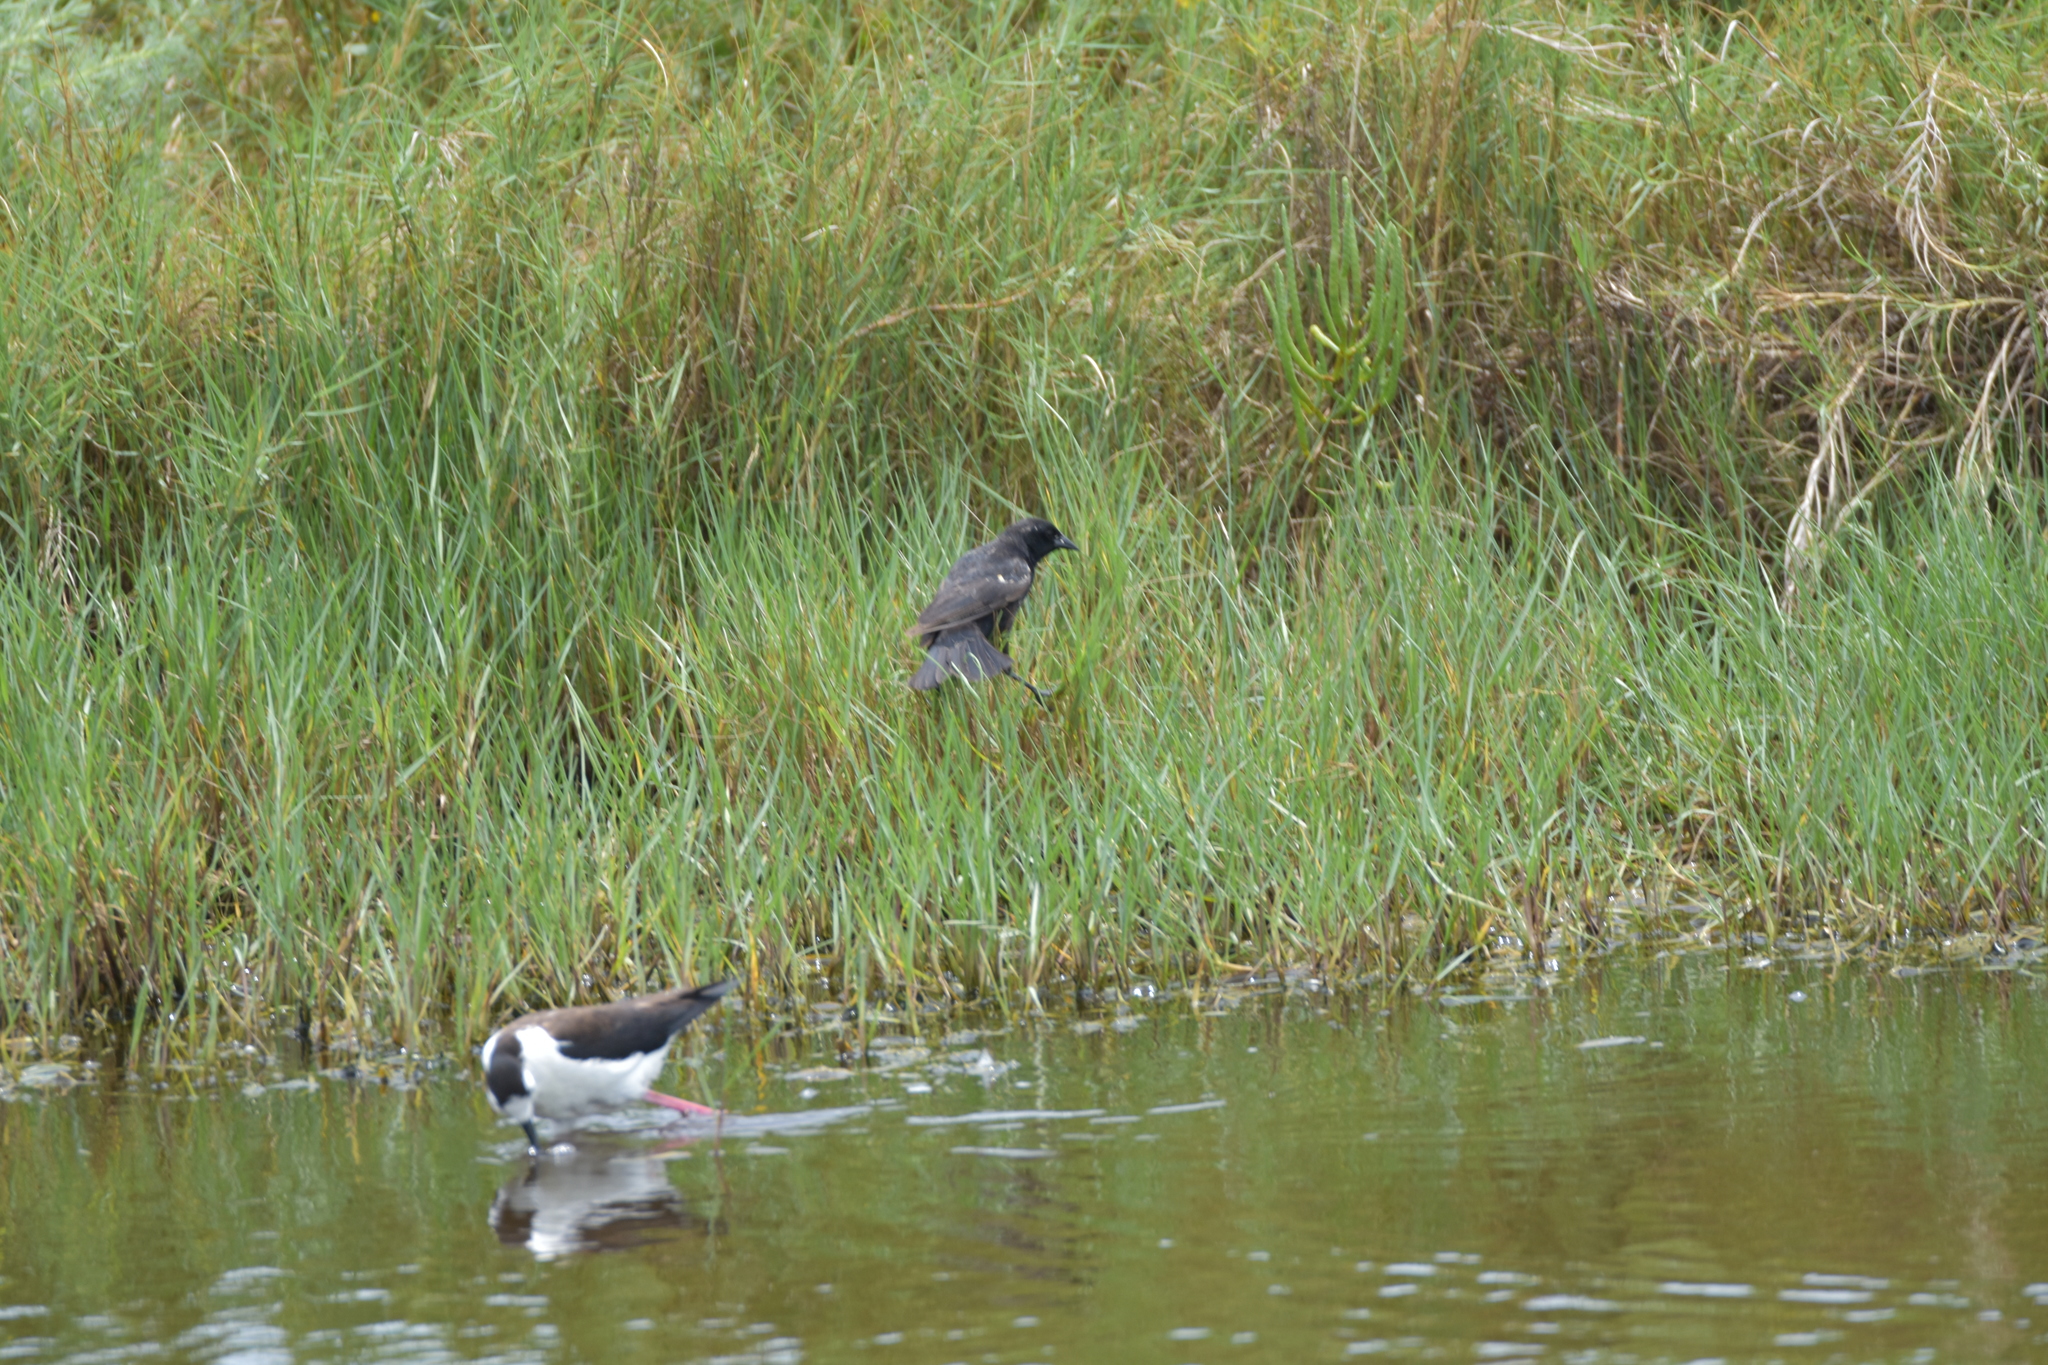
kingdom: Animalia
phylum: Chordata
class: Aves
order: Passeriformes
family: Icteridae
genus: Agelaius
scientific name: Agelaius phoeniceus
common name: Red-winged blackbird
